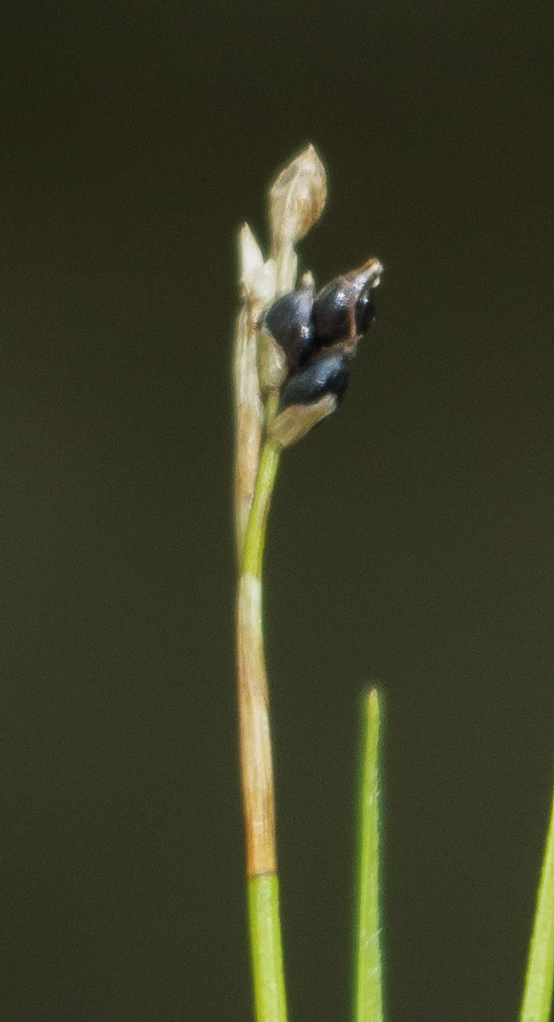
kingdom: Plantae
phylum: Tracheophyta
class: Liliopsida
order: Poales
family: Cyperaceae
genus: Carex
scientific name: Carex eburnea
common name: Bristle-leaved sedge
